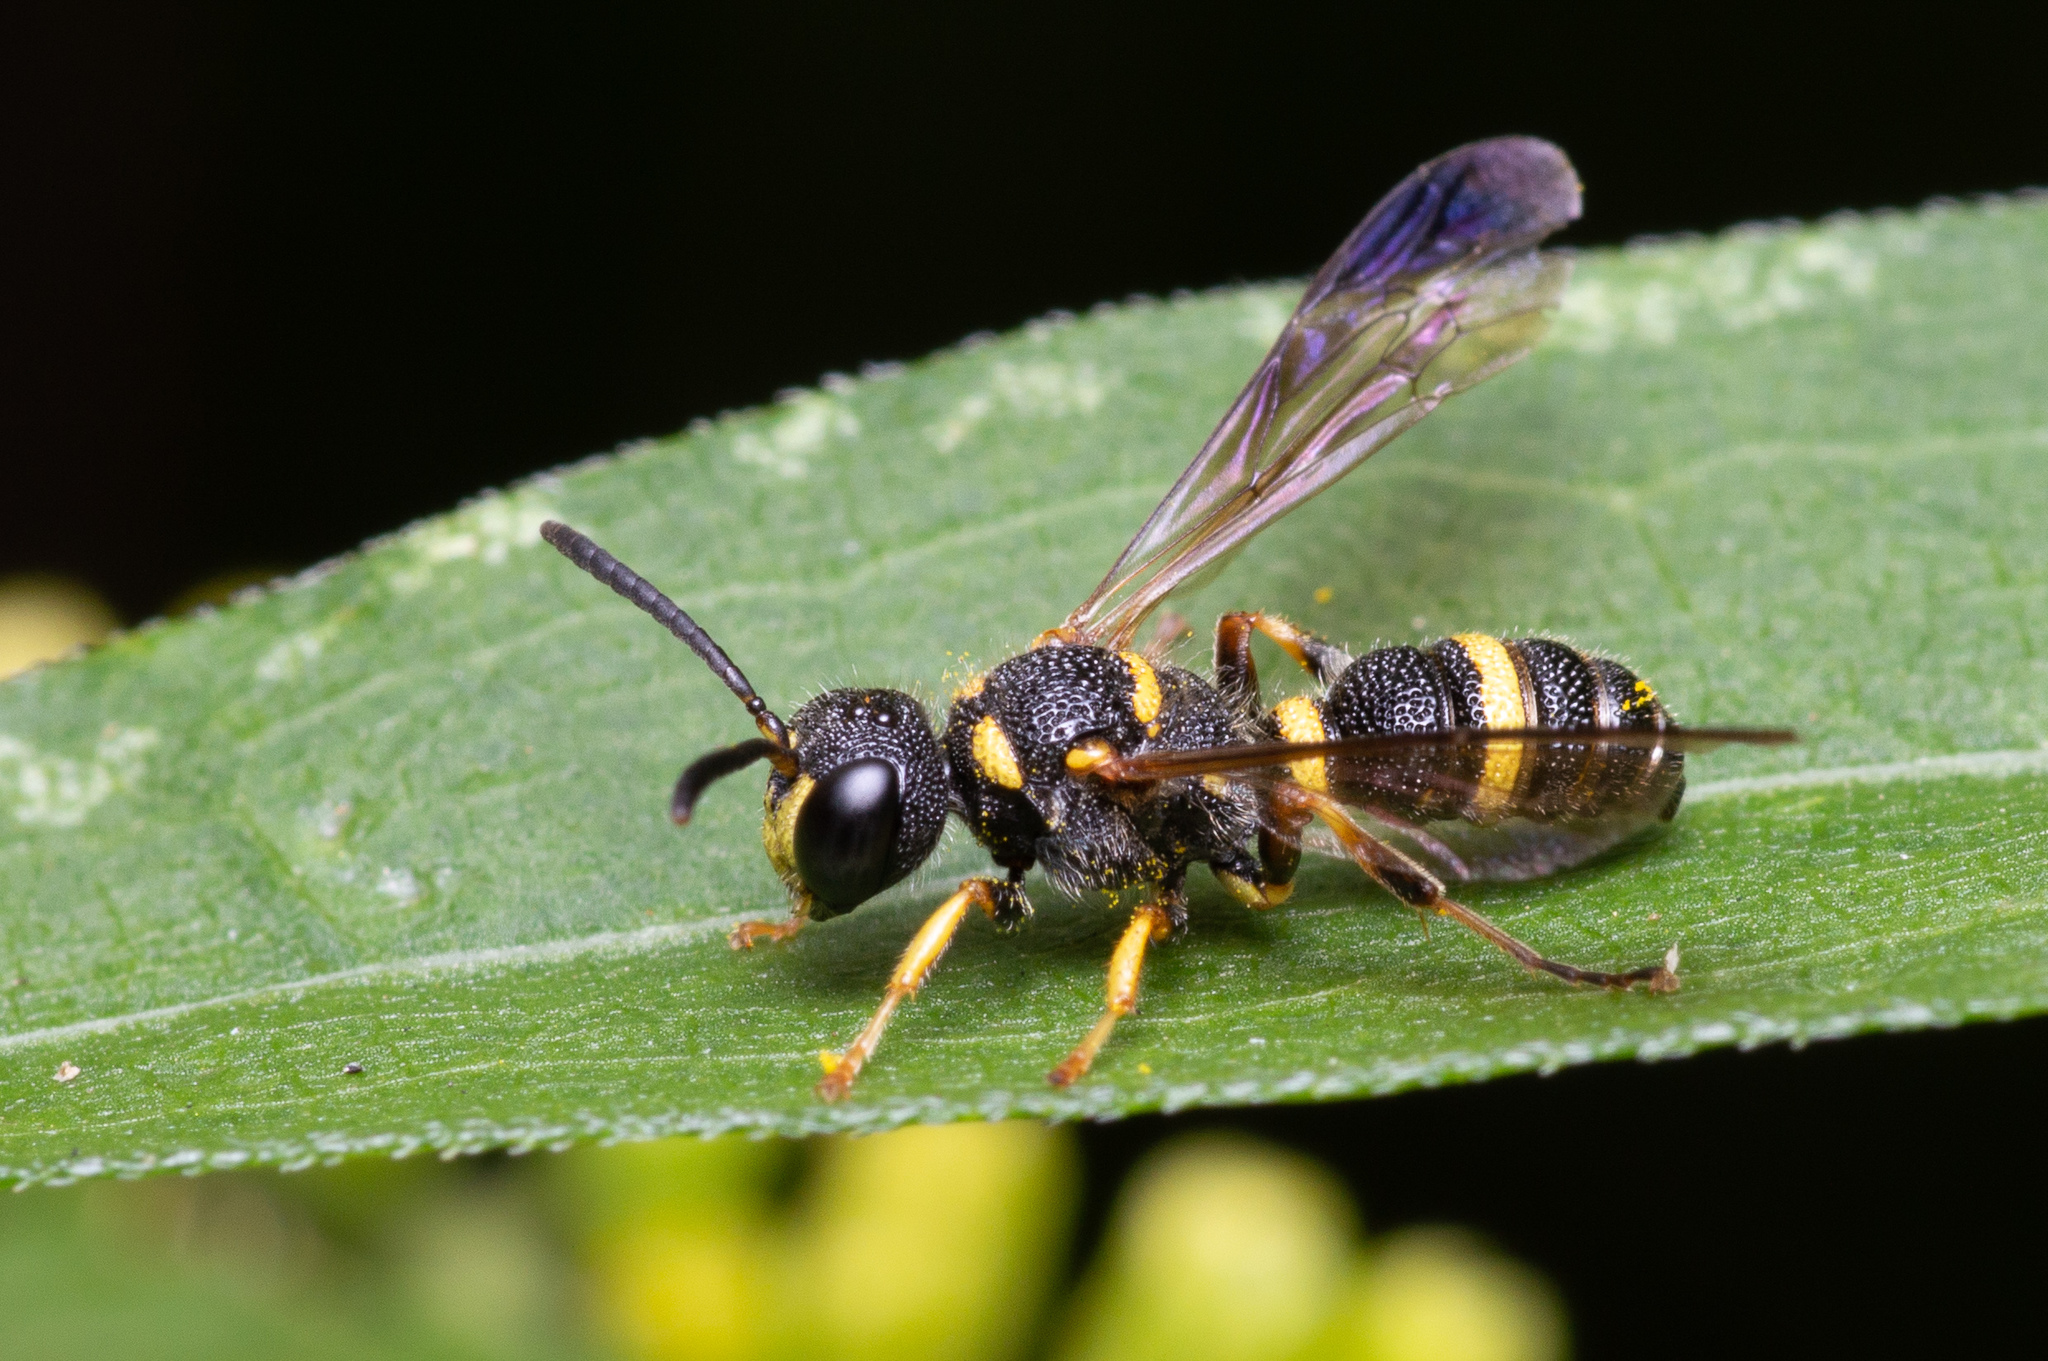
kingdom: Animalia
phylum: Arthropoda
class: Insecta
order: Hymenoptera
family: Crabronidae
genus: Cerceris
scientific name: Cerceris insolita
